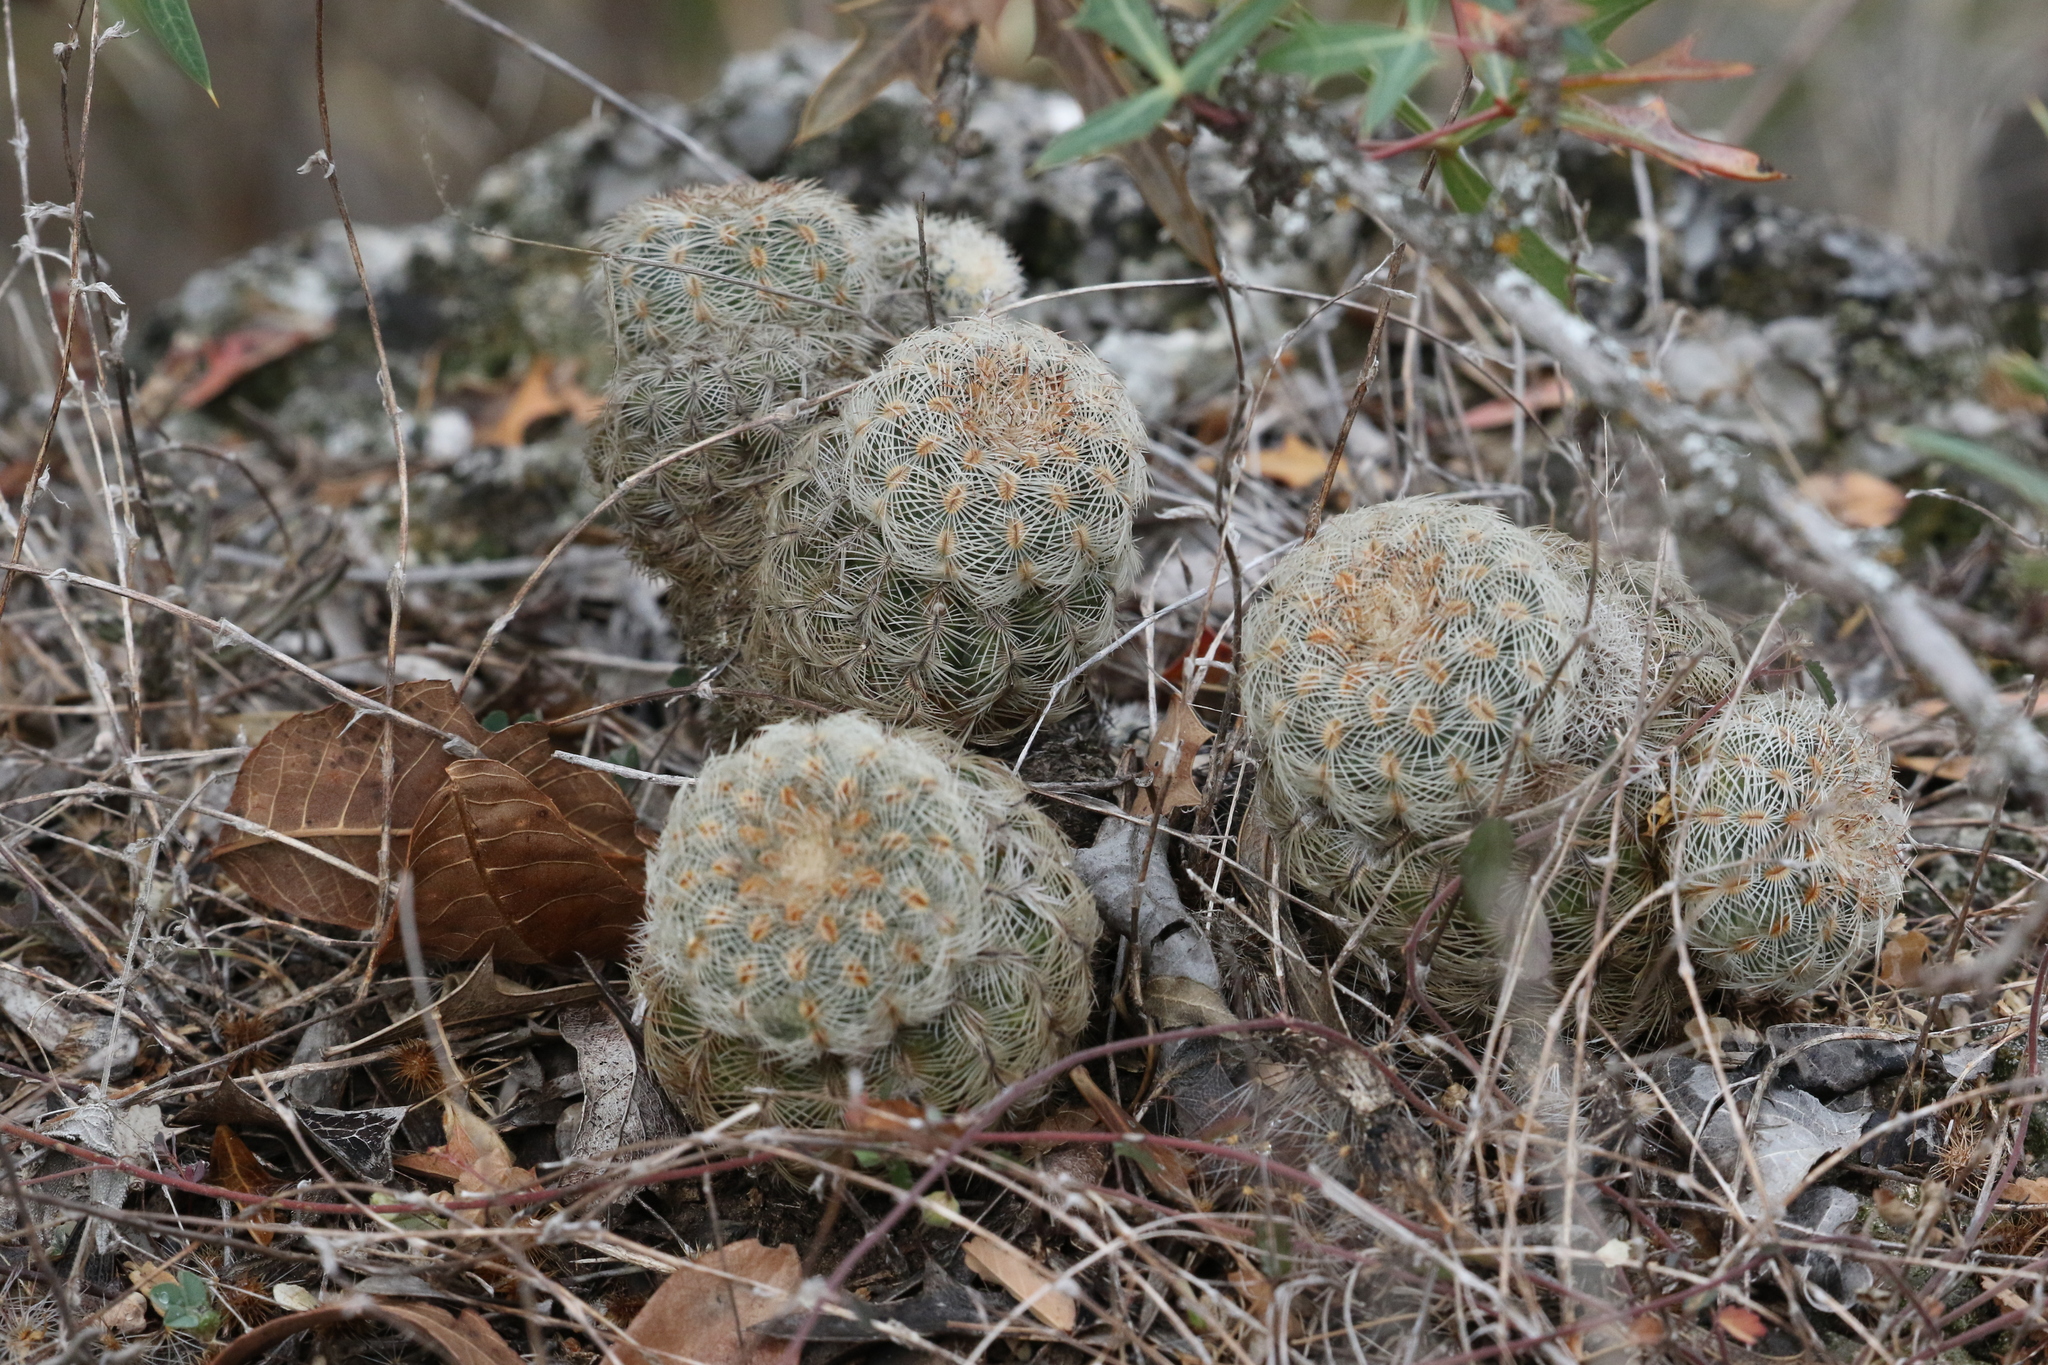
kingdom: Plantae
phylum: Tracheophyta
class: Magnoliopsida
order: Caryophyllales
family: Cactaceae
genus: Echinocereus
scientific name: Echinocereus reichenbachii
